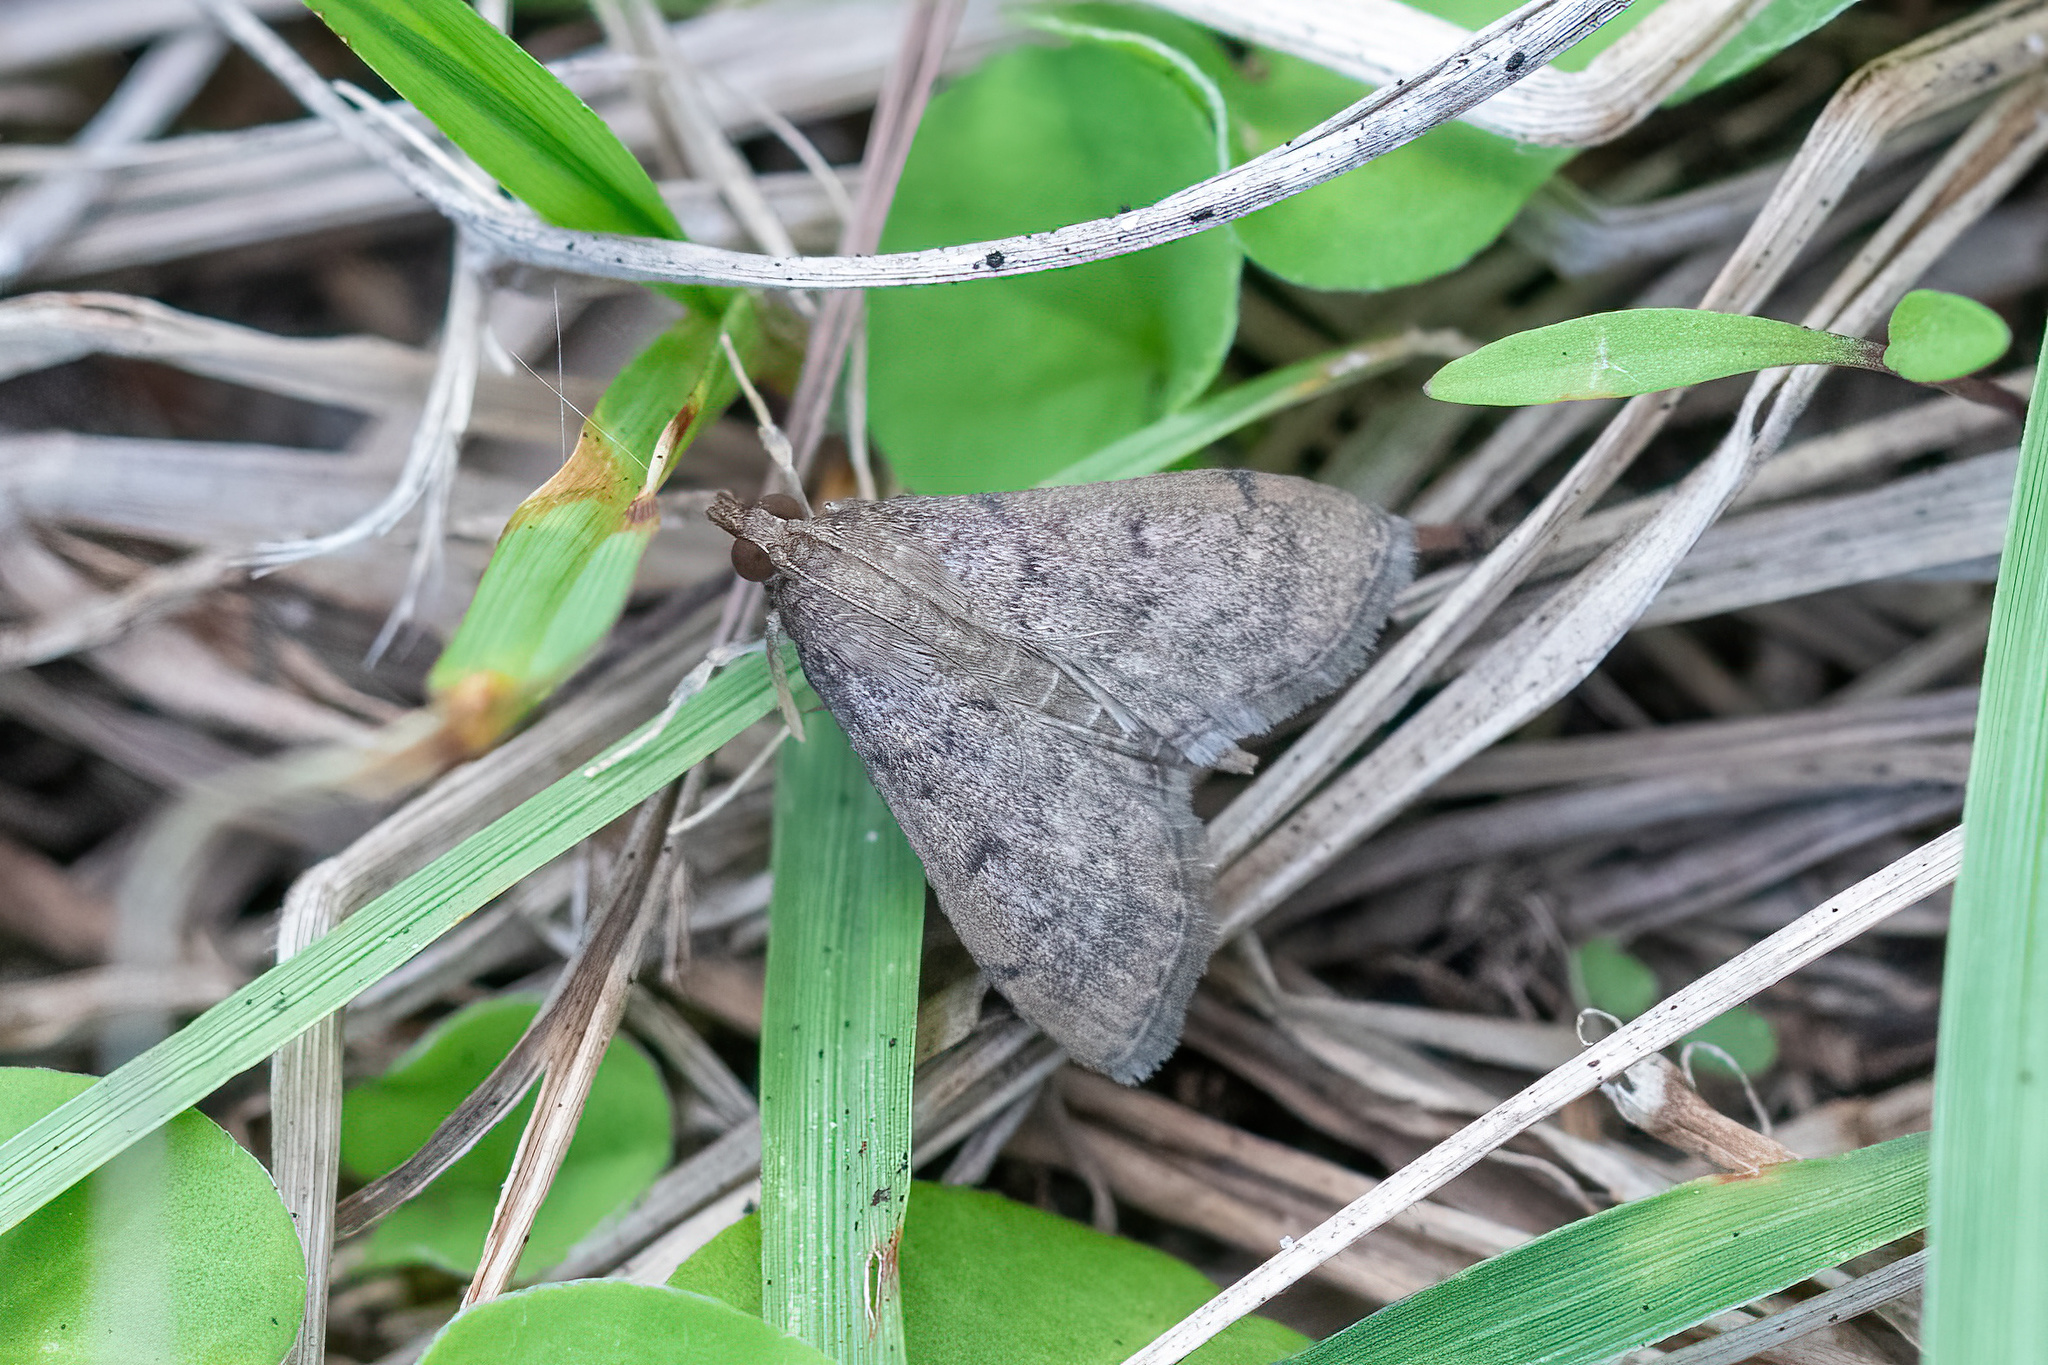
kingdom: Animalia
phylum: Arthropoda
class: Insecta
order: Lepidoptera
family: Crambidae
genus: Herpetogramma
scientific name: Herpetogramma phaeopteralis
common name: Dusky herpetogramma moth
